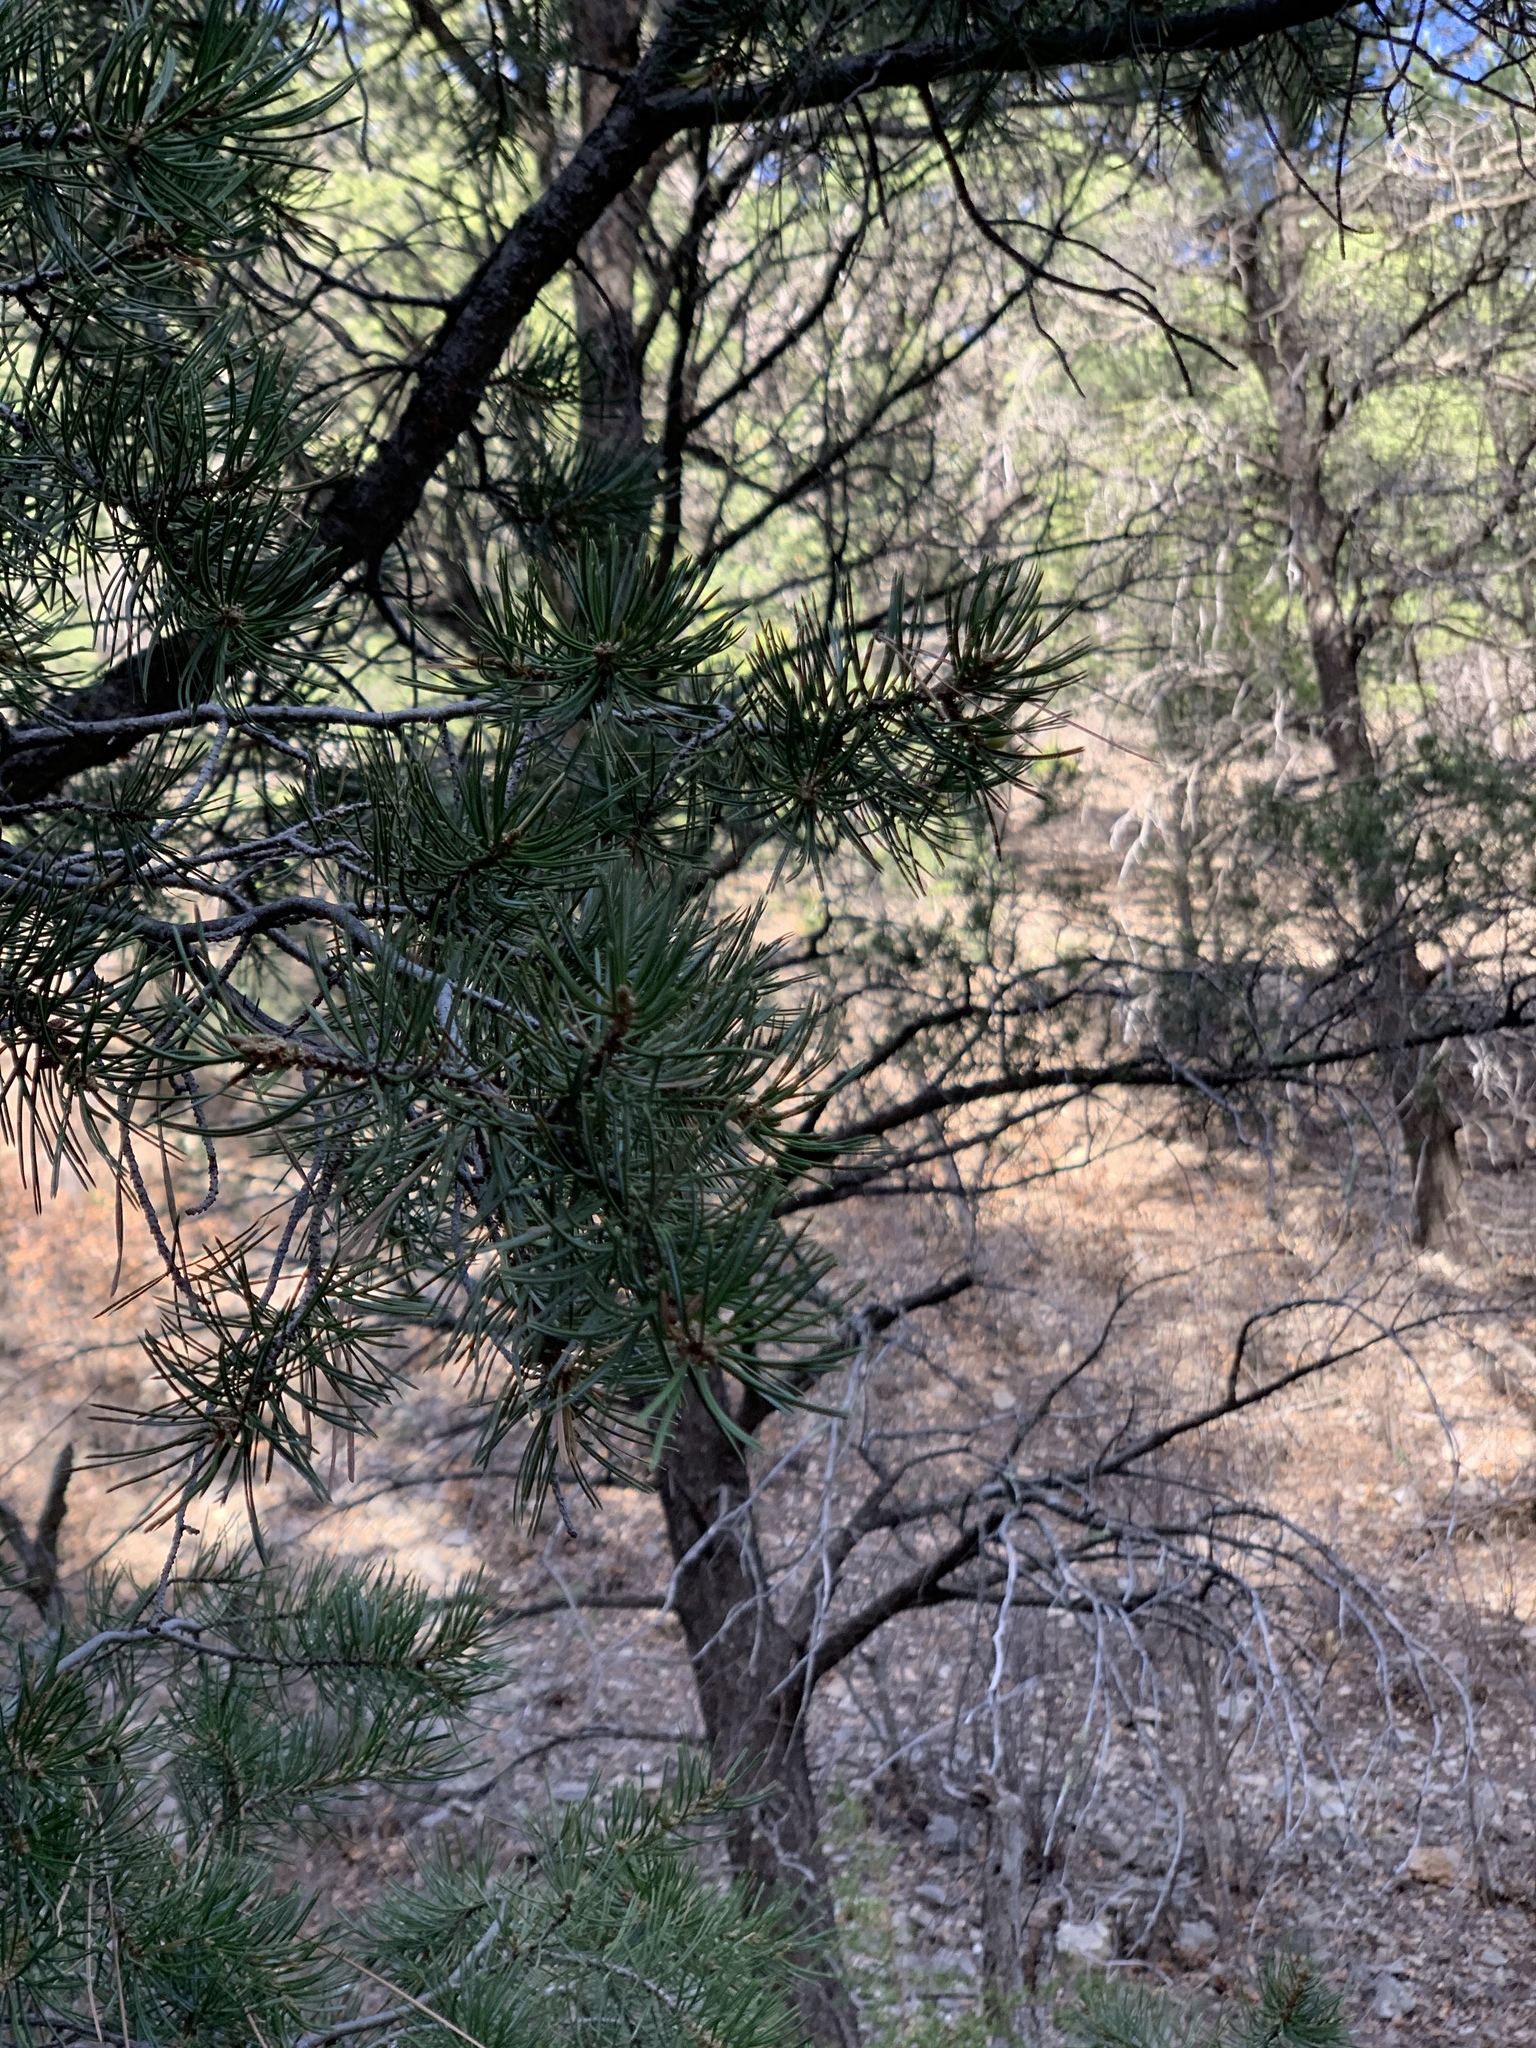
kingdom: Plantae
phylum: Tracheophyta
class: Pinopsida
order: Pinales
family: Pinaceae
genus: Pinus
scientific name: Pinus edulis
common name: Colorado pinyon
